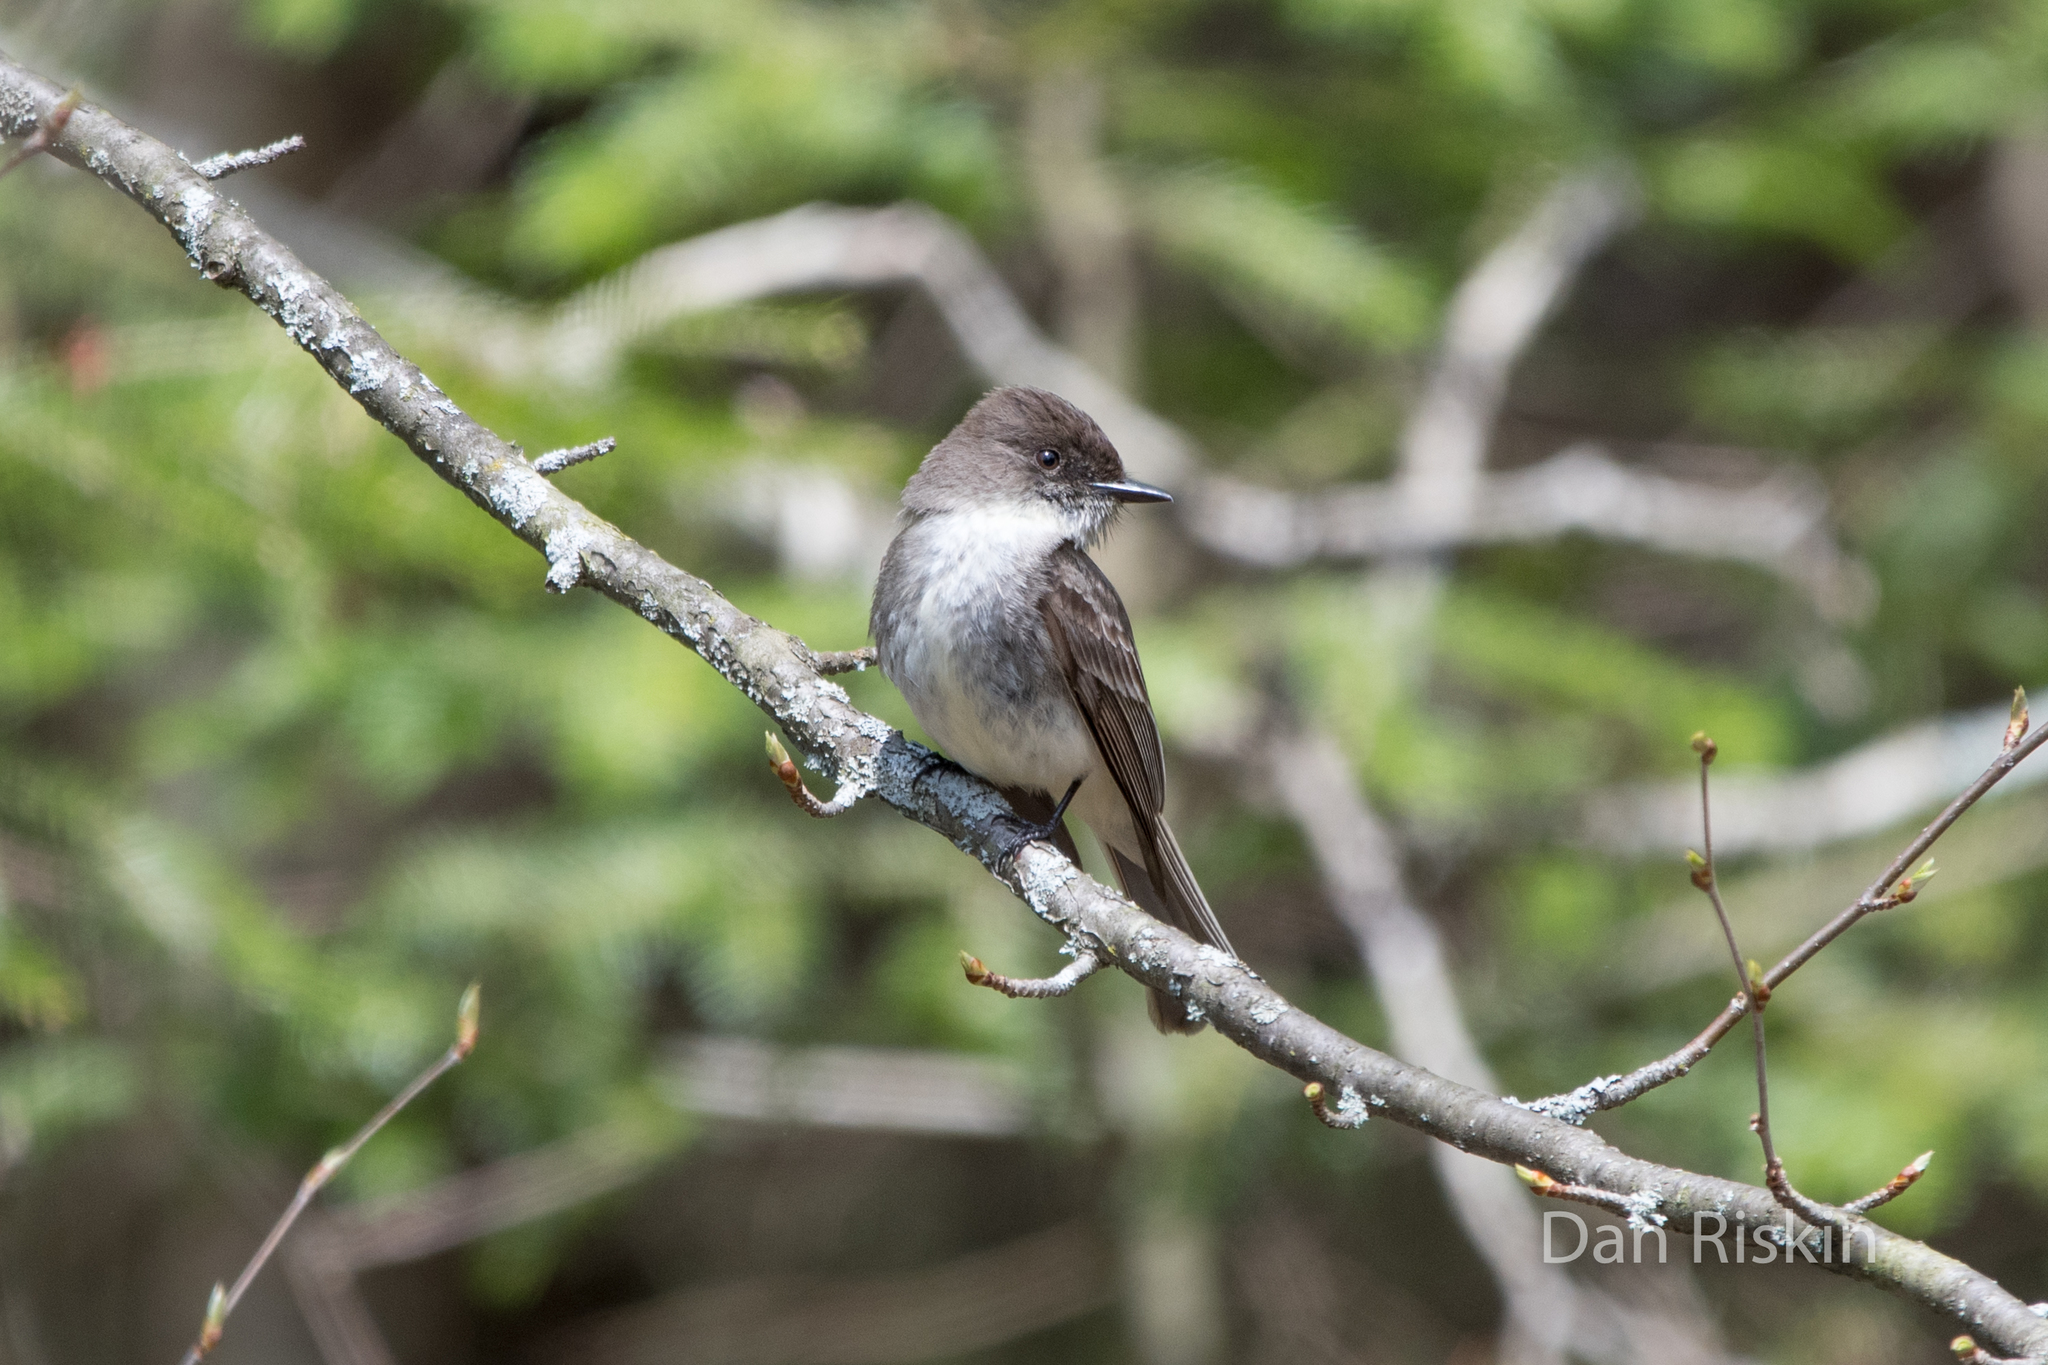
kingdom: Animalia
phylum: Chordata
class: Aves
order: Passeriformes
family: Tyrannidae
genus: Sayornis
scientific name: Sayornis phoebe
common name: Eastern phoebe
